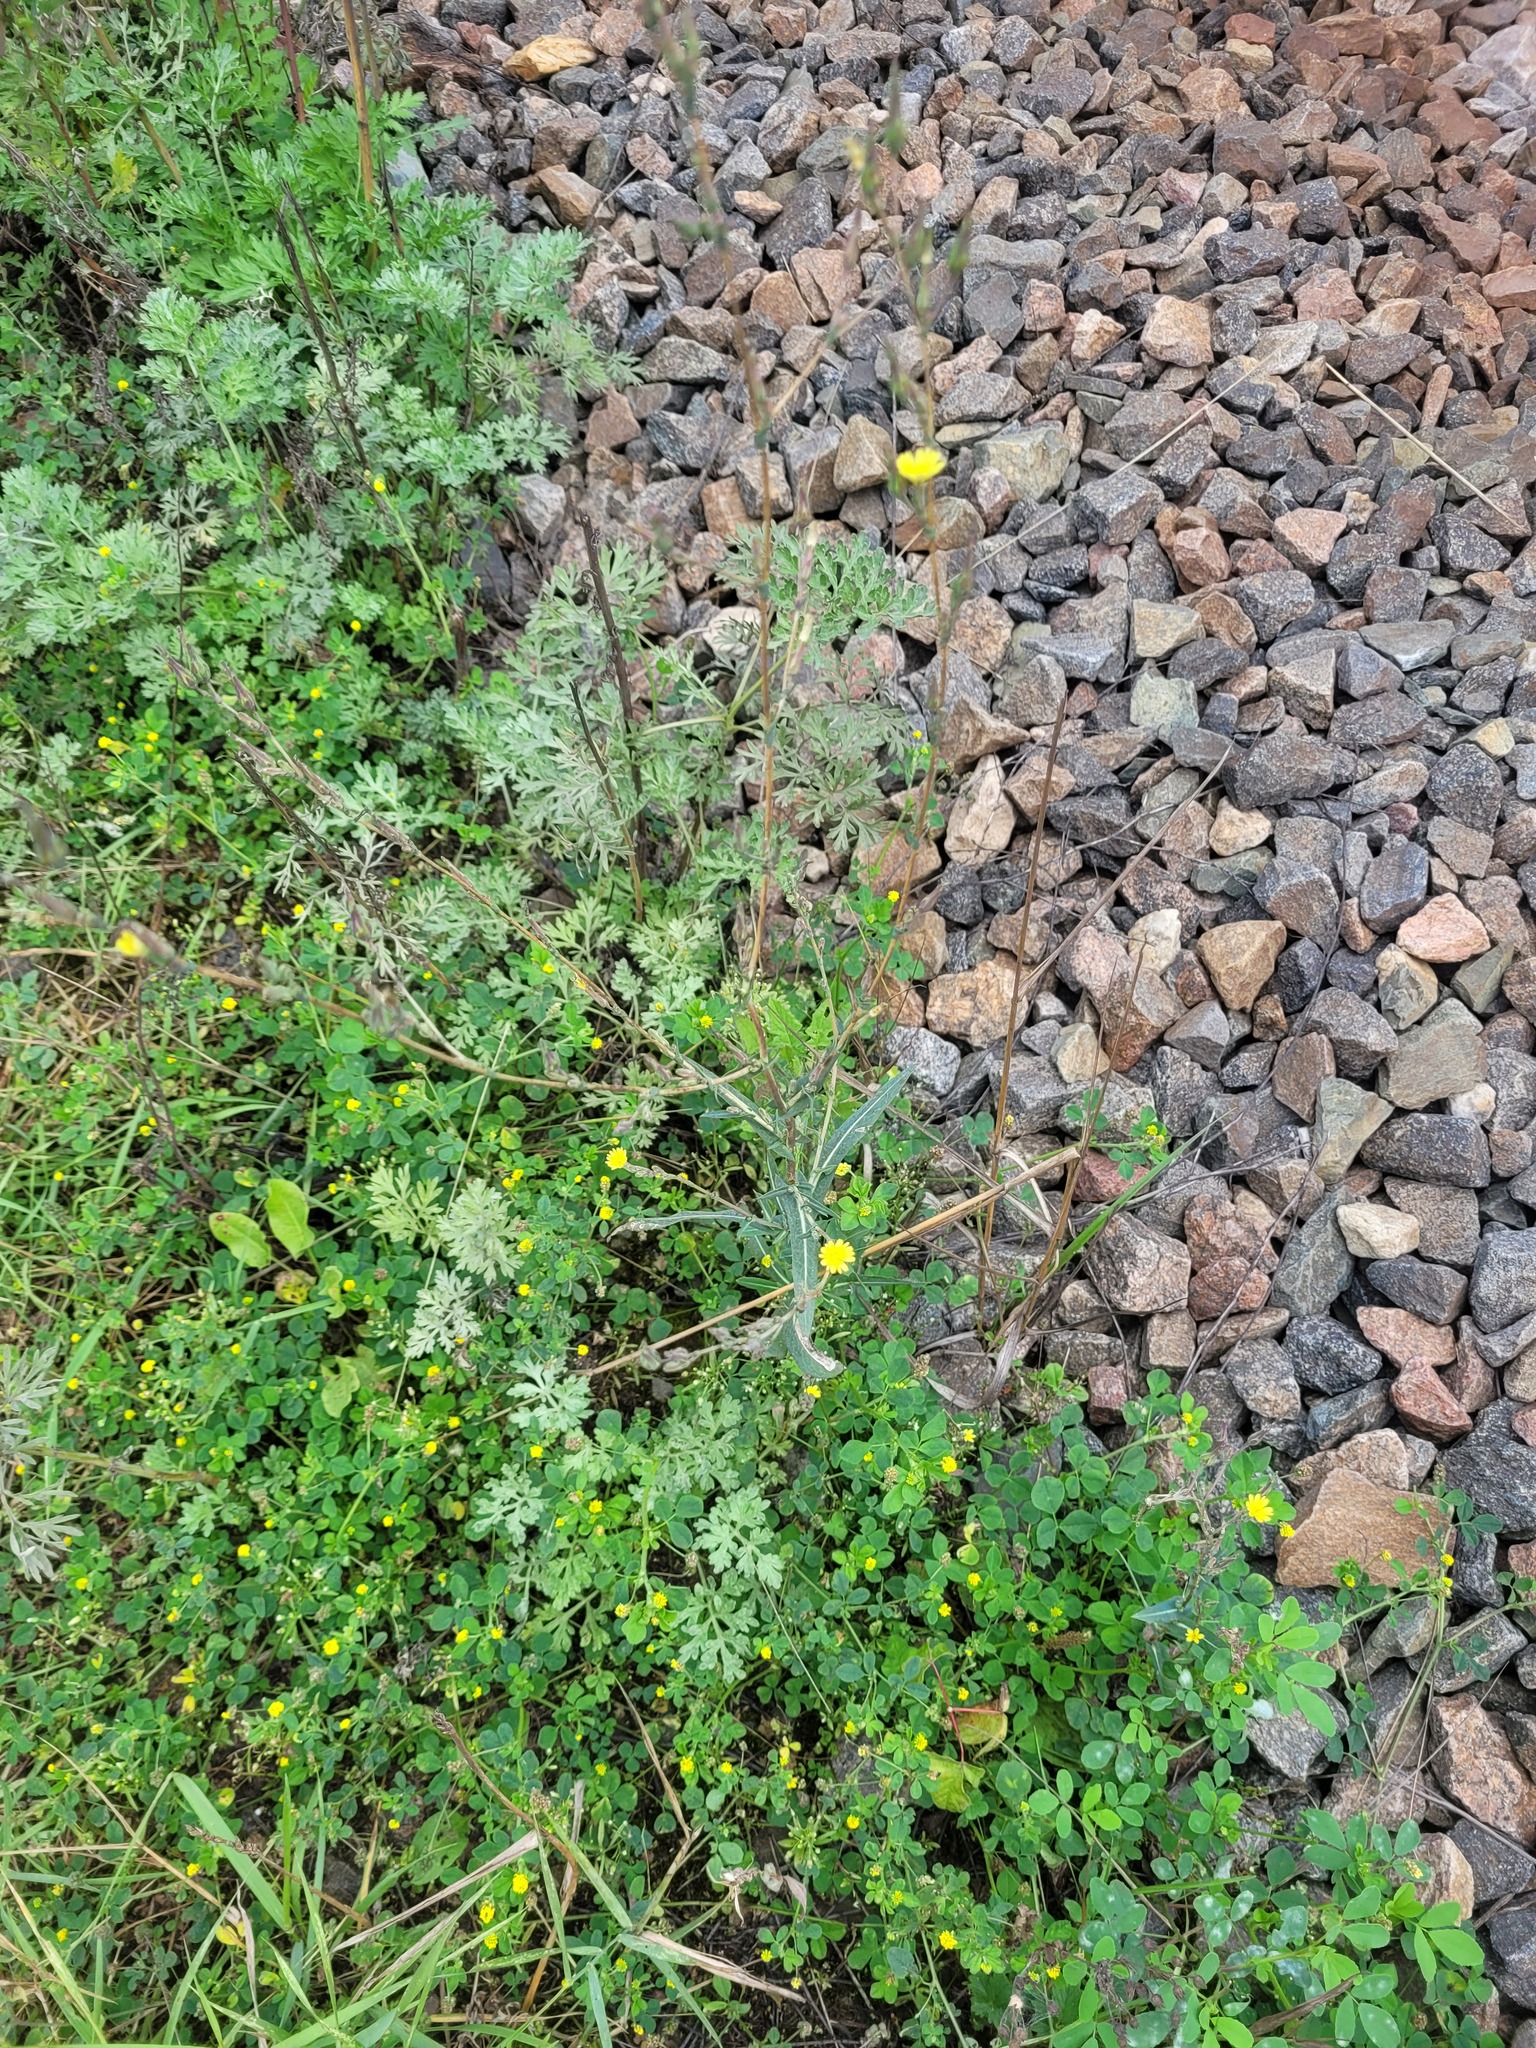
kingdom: Plantae
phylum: Tracheophyta
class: Magnoliopsida
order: Asterales
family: Asteraceae
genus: Lactuca
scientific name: Lactuca serriola
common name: Prickly lettuce
